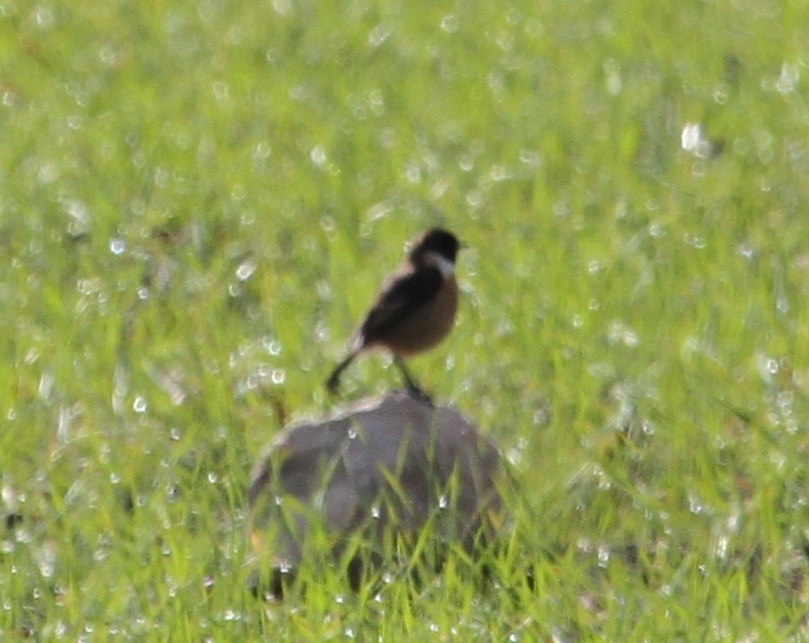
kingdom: Animalia
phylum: Chordata
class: Aves
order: Passeriformes
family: Muscicapidae
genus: Saxicola
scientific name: Saxicola rubicola
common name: European stonechat
